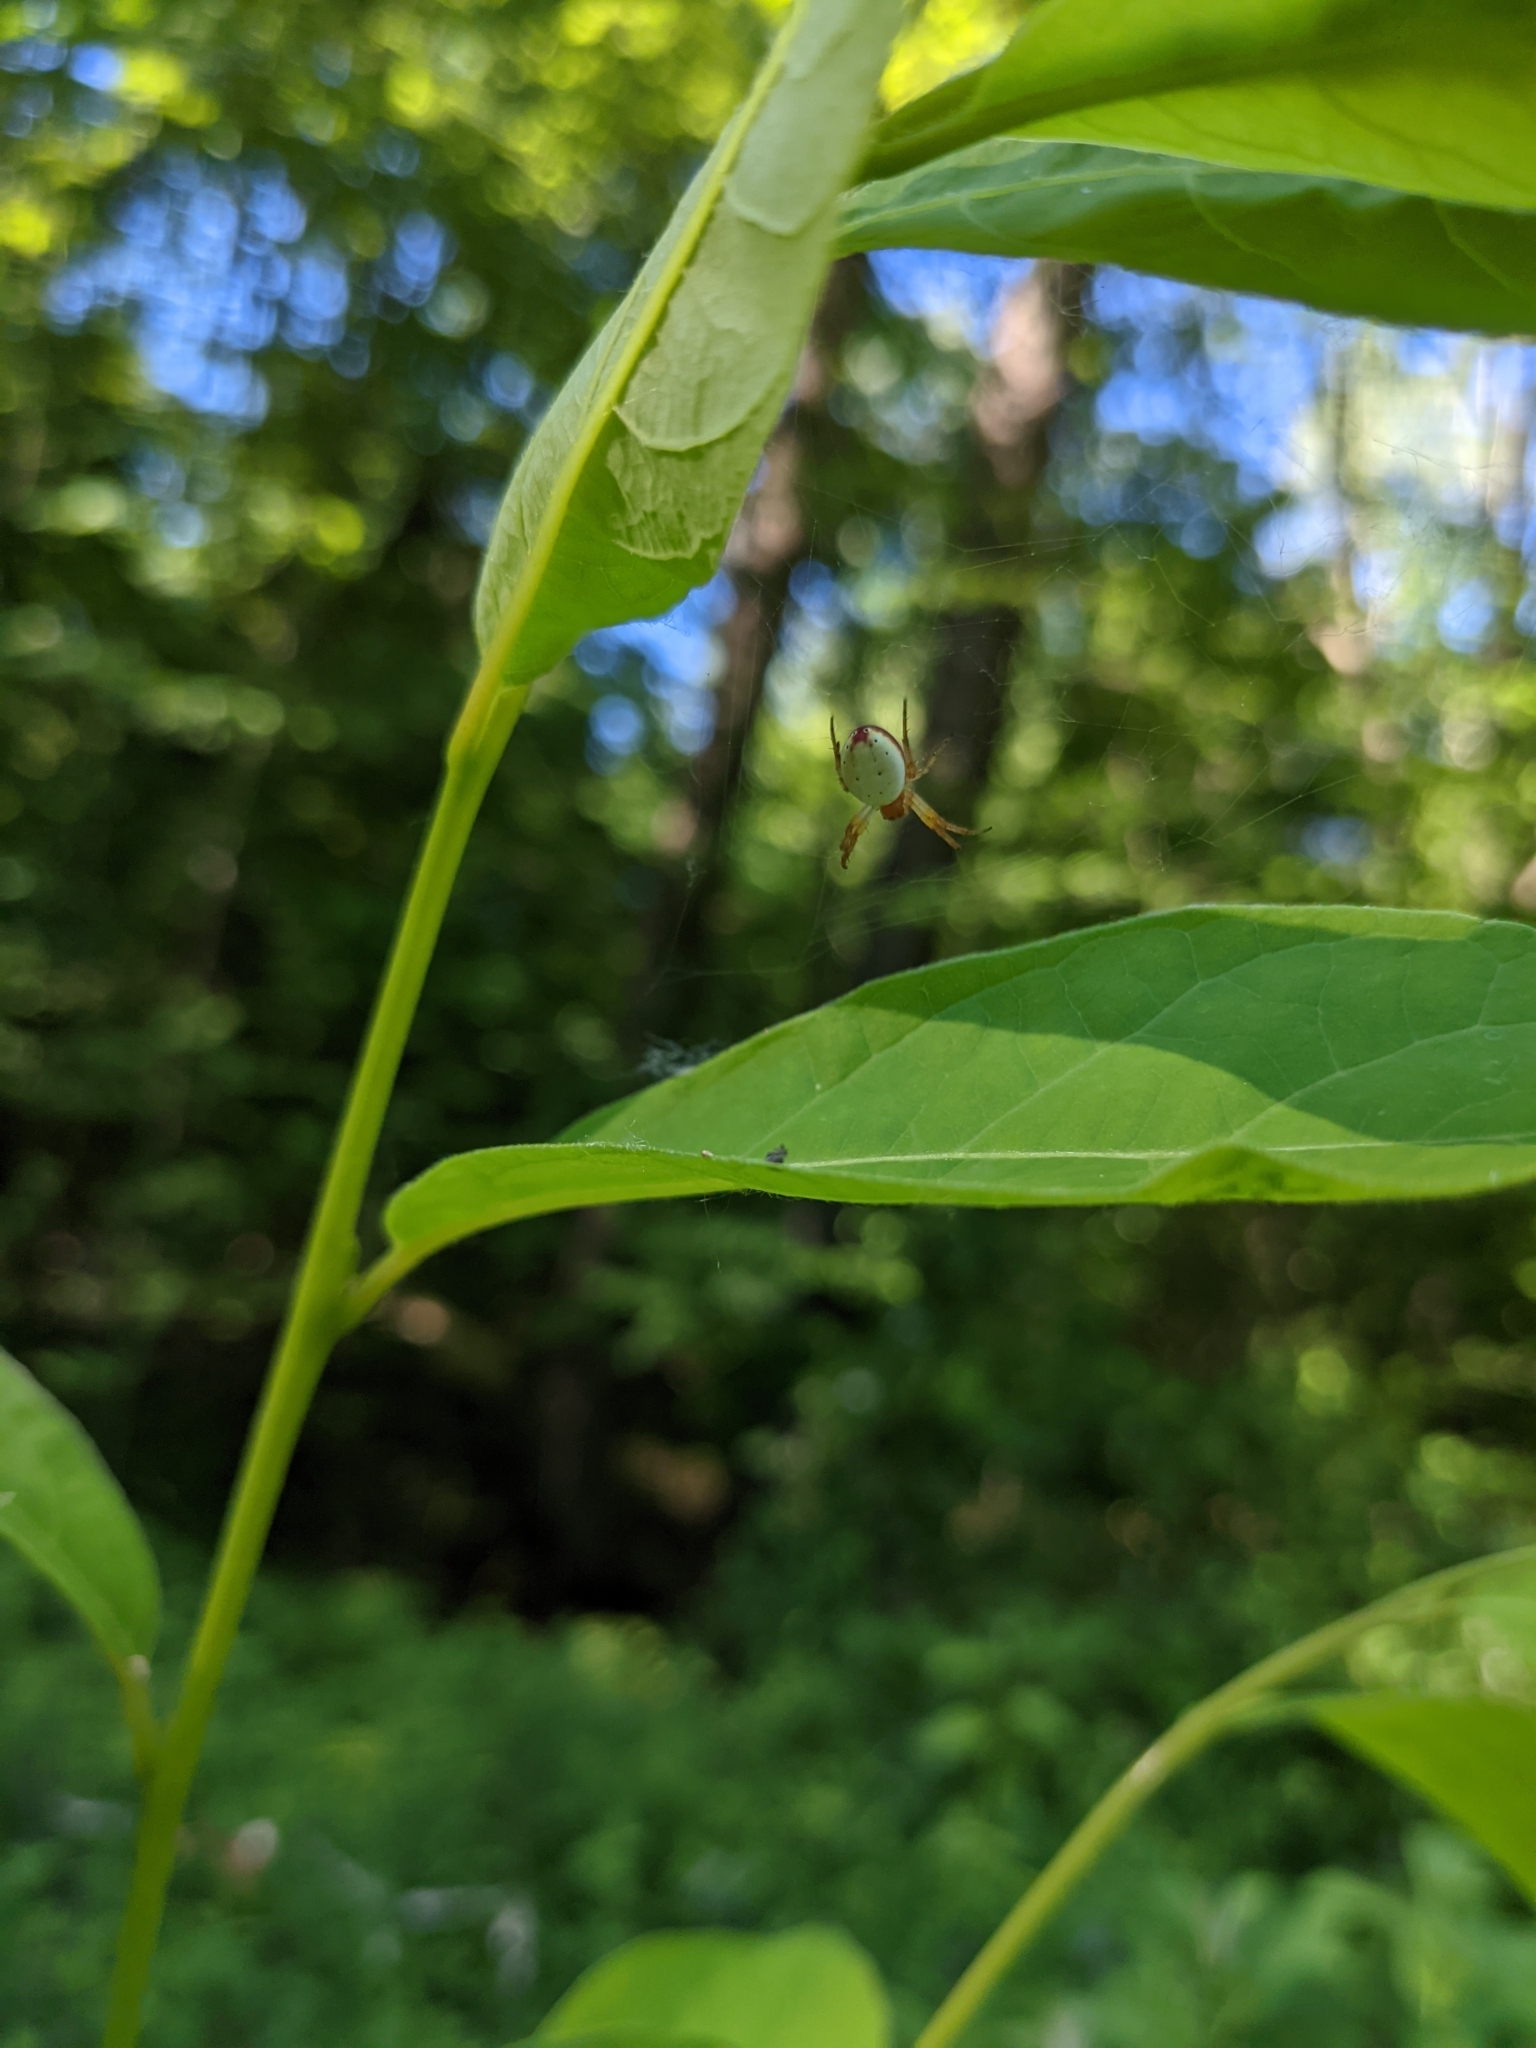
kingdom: Animalia
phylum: Arthropoda
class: Arachnida
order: Araneae
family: Araneidae
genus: Araniella
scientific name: Araniella displicata
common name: Sixspotted orb weaver
